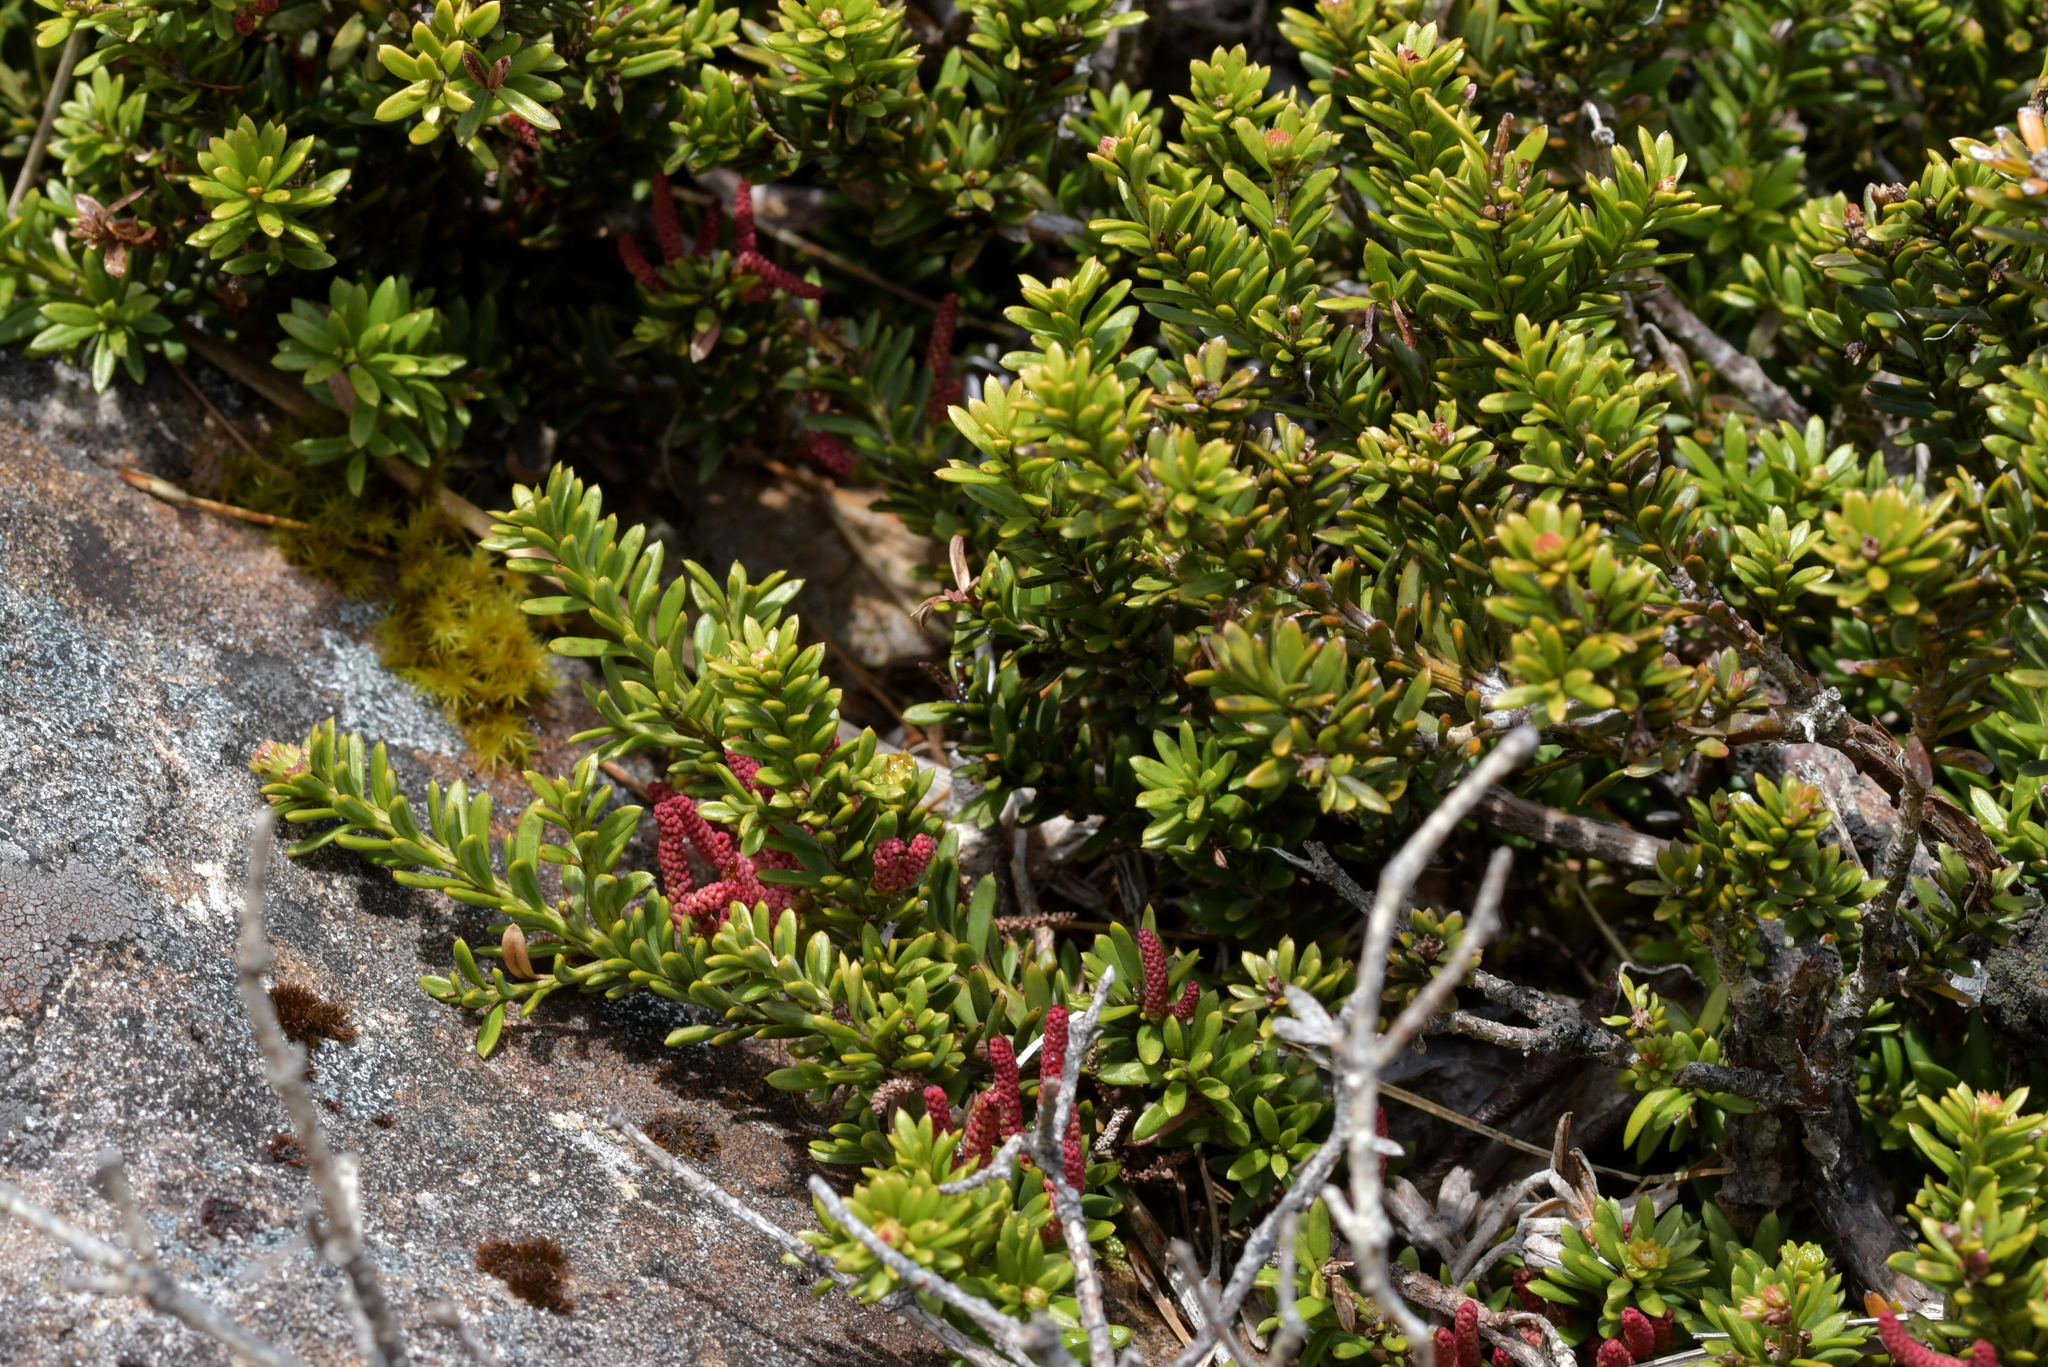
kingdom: Plantae
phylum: Tracheophyta
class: Pinopsida
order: Pinales
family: Podocarpaceae
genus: Podocarpus
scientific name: Podocarpus nivalis
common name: Alpine totara
